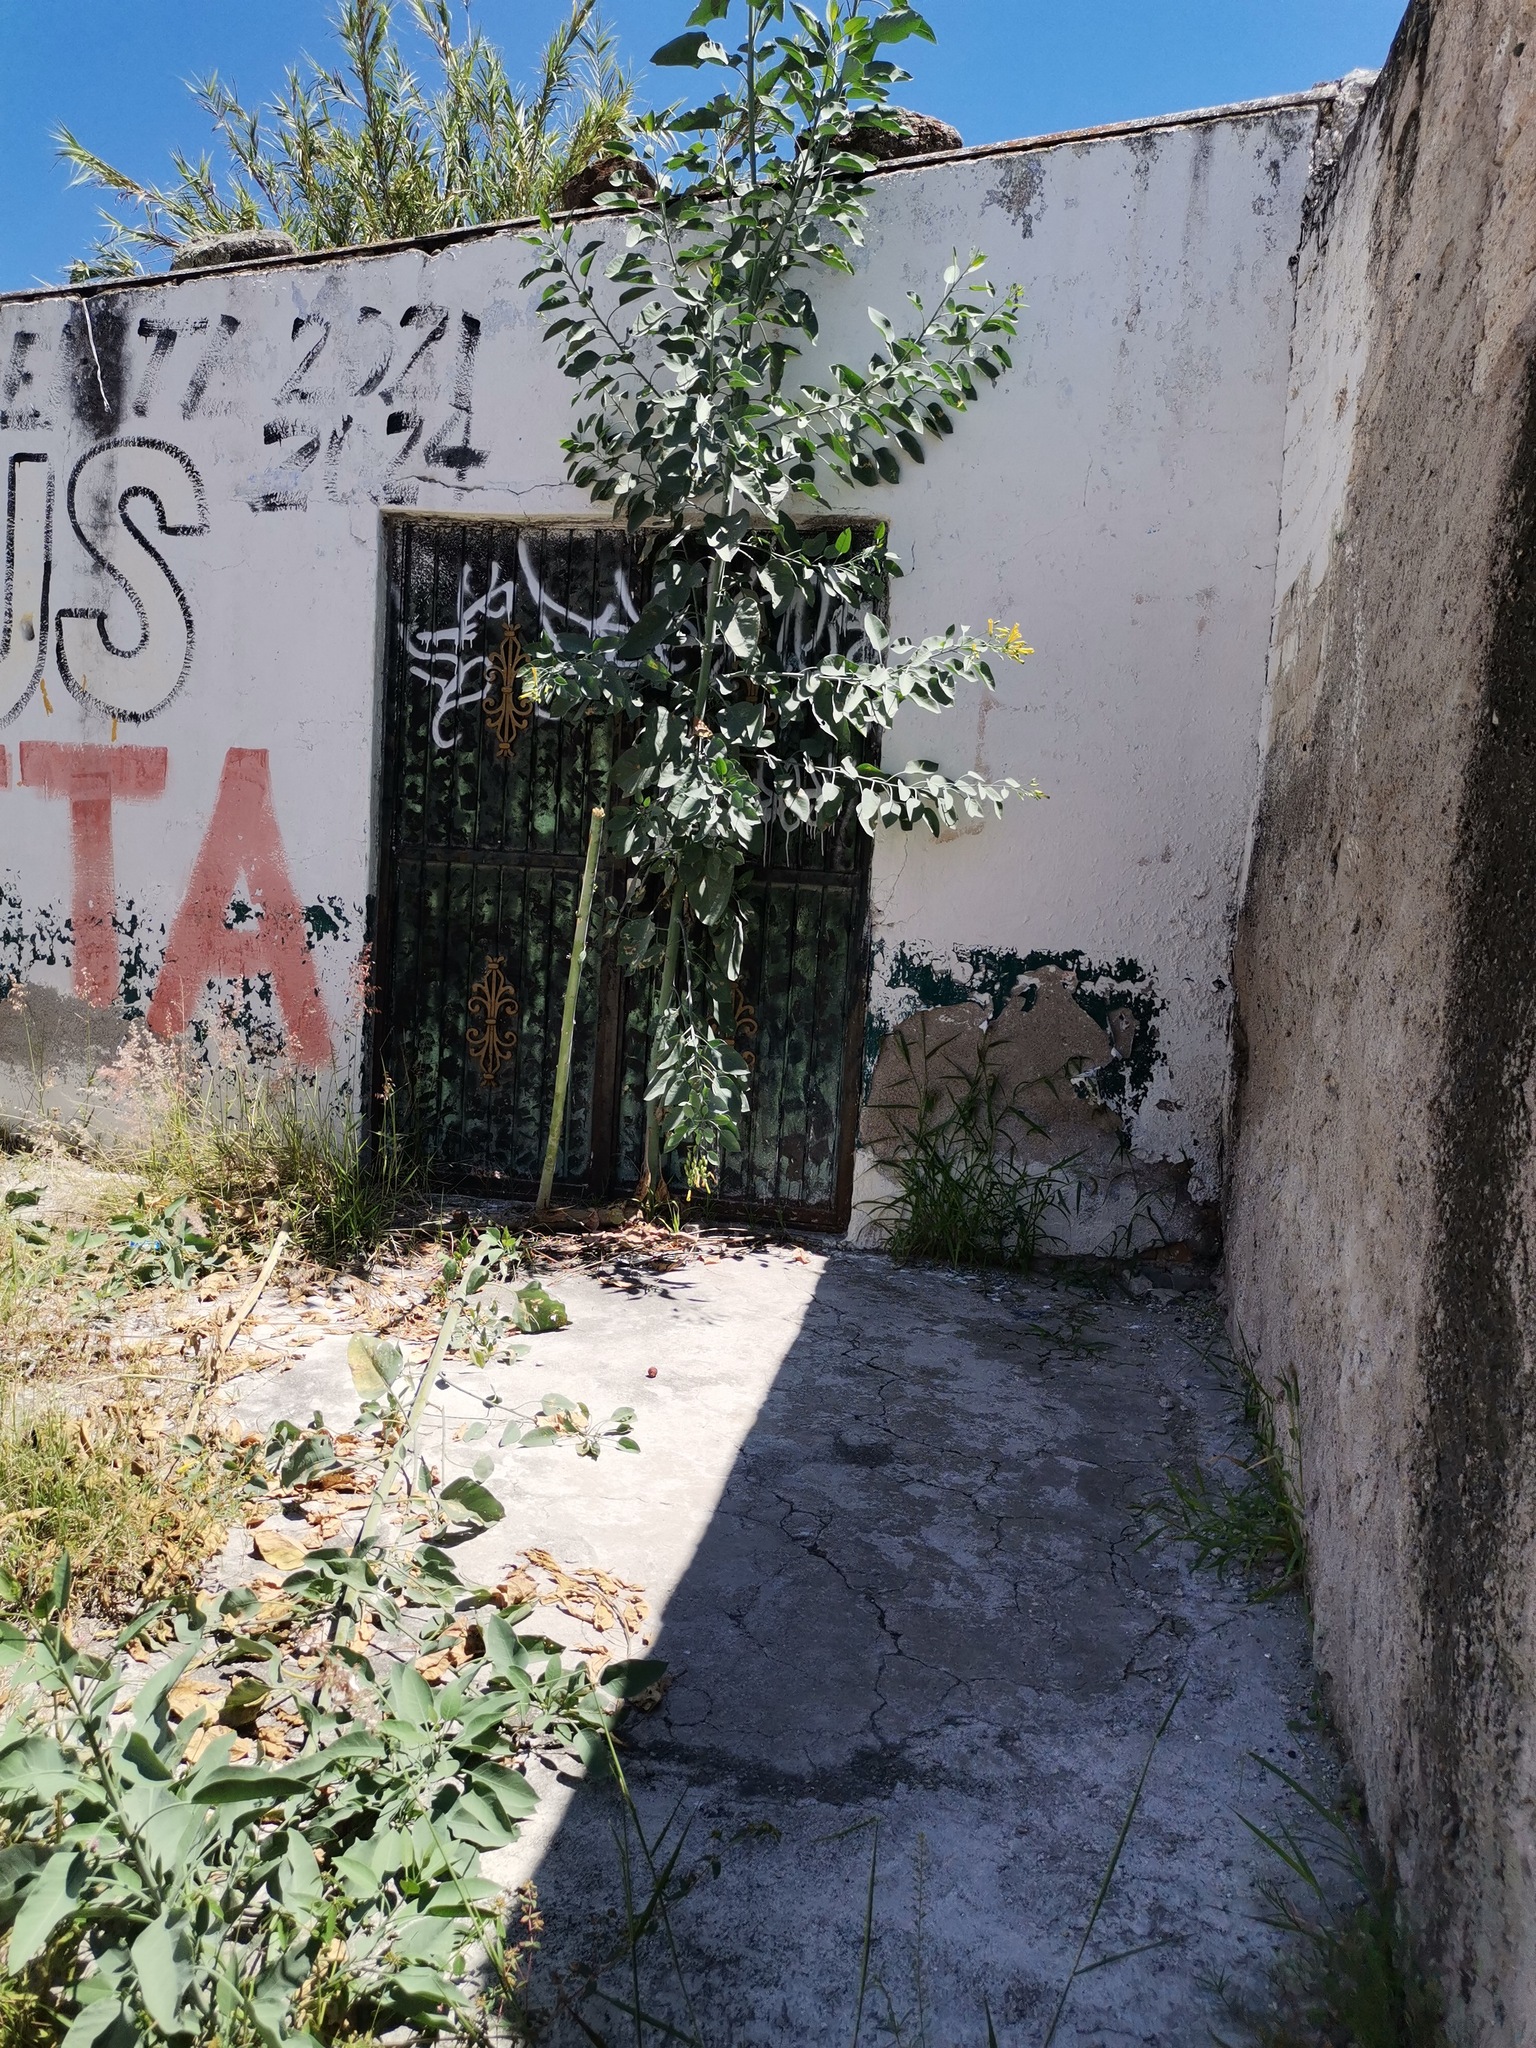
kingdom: Plantae
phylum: Tracheophyta
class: Magnoliopsida
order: Solanales
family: Solanaceae
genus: Nicotiana
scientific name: Nicotiana glauca
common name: Tree tobacco
